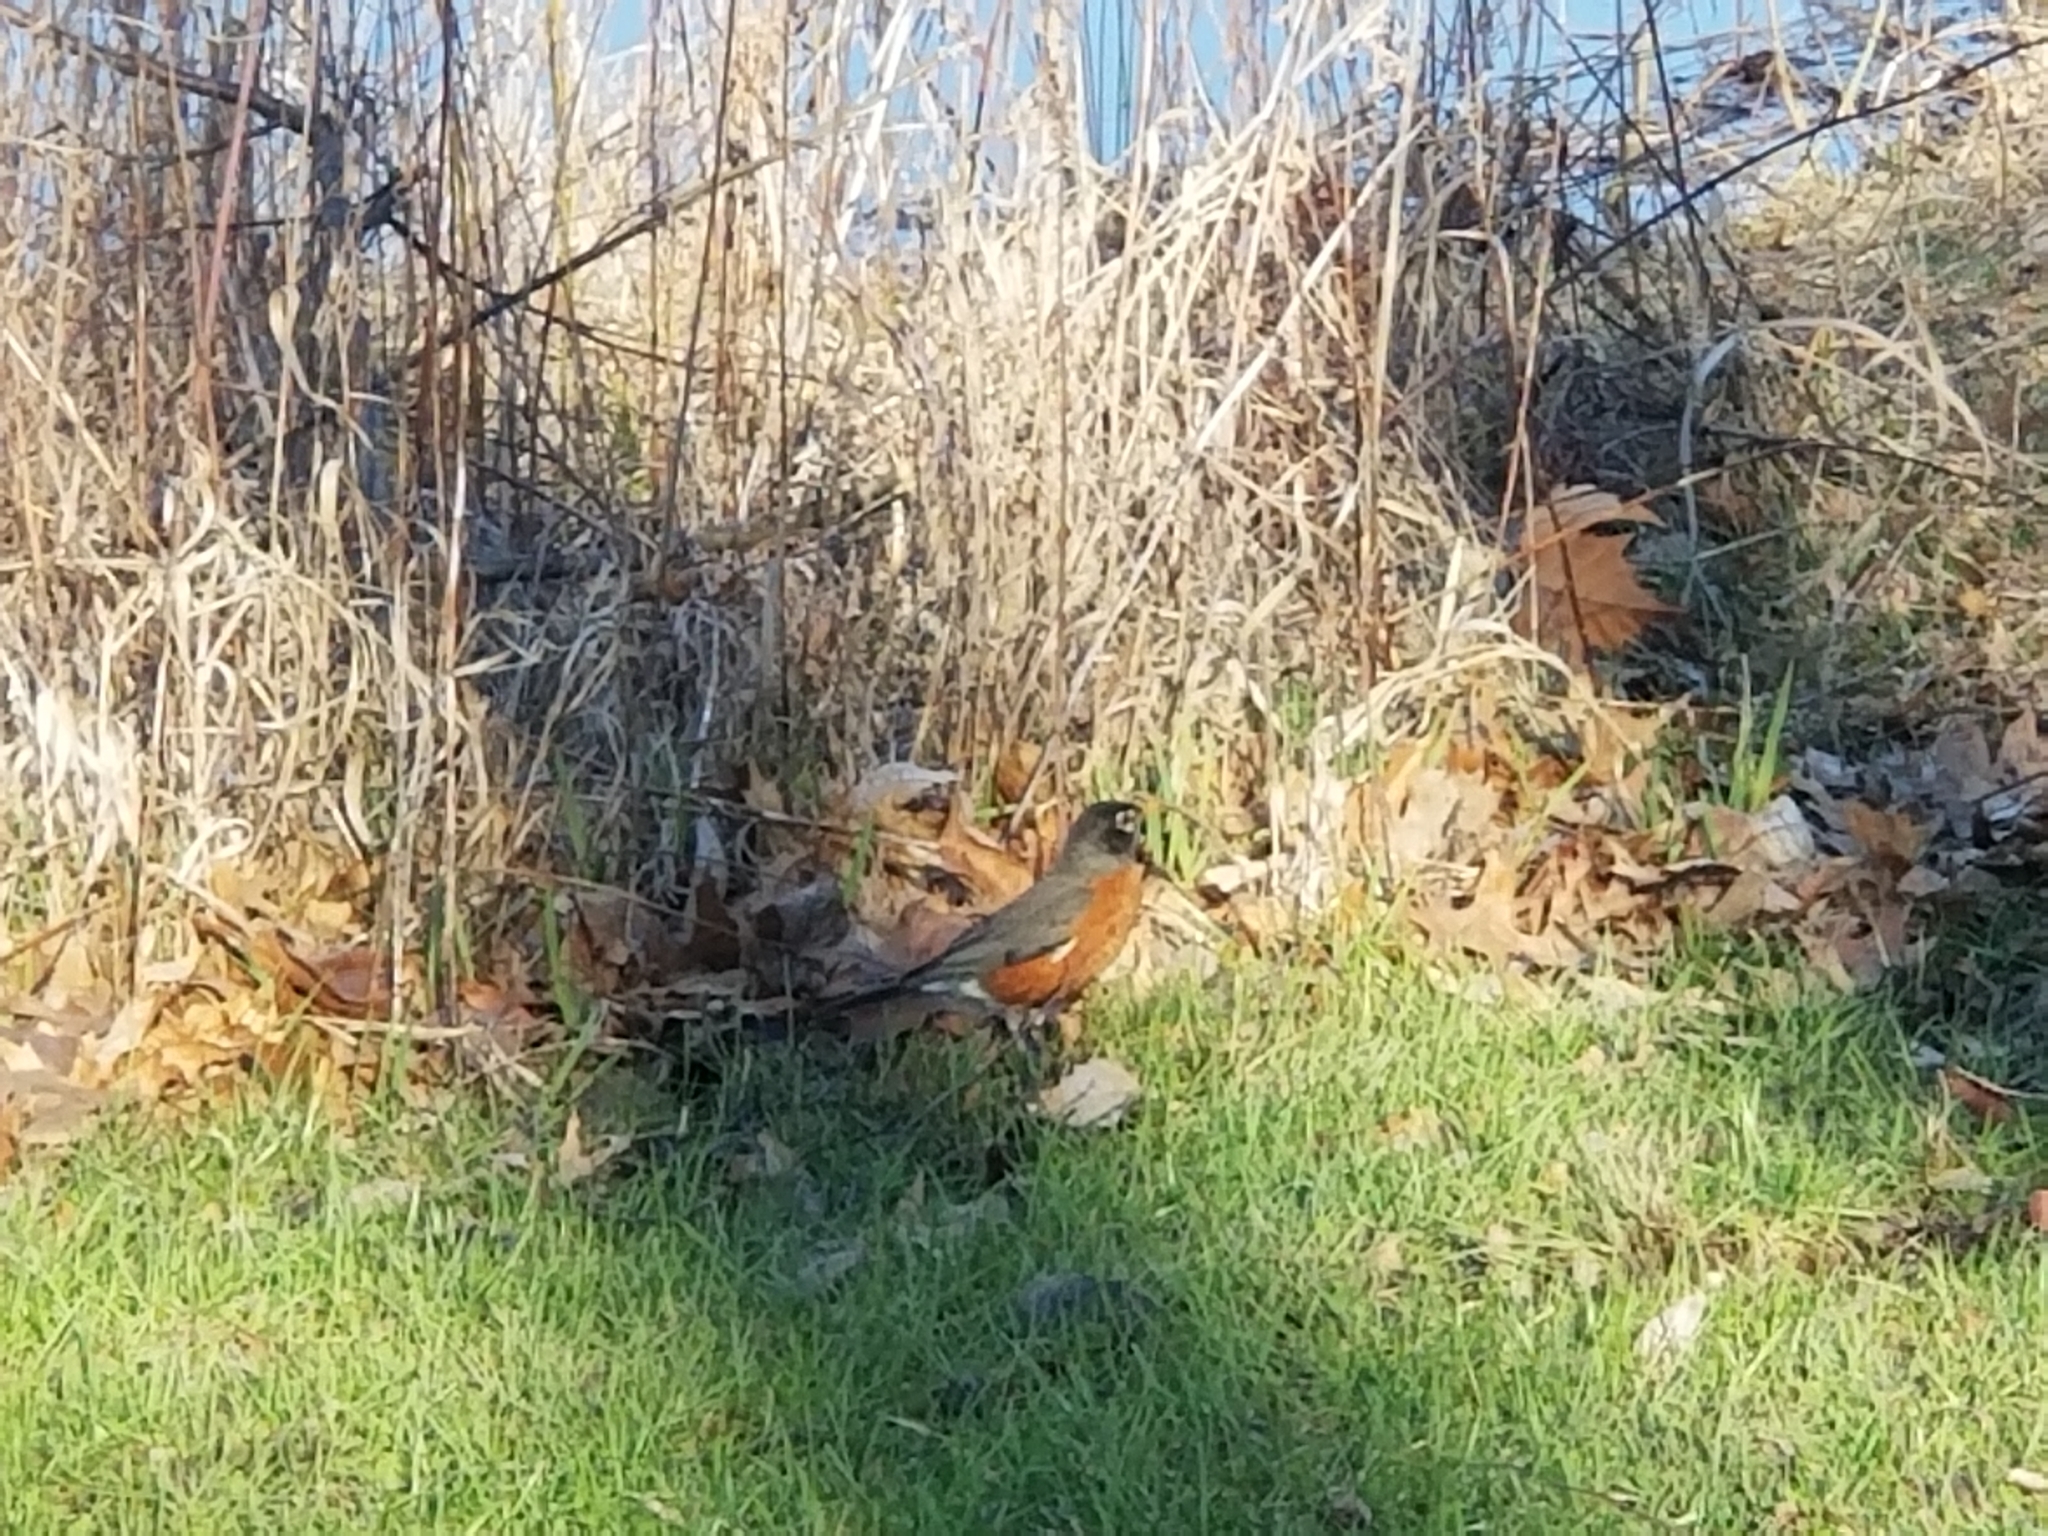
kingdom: Animalia
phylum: Chordata
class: Aves
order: Passeriformes
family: Turdidae
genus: Turdus
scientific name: Turdus migratorius
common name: American robin
